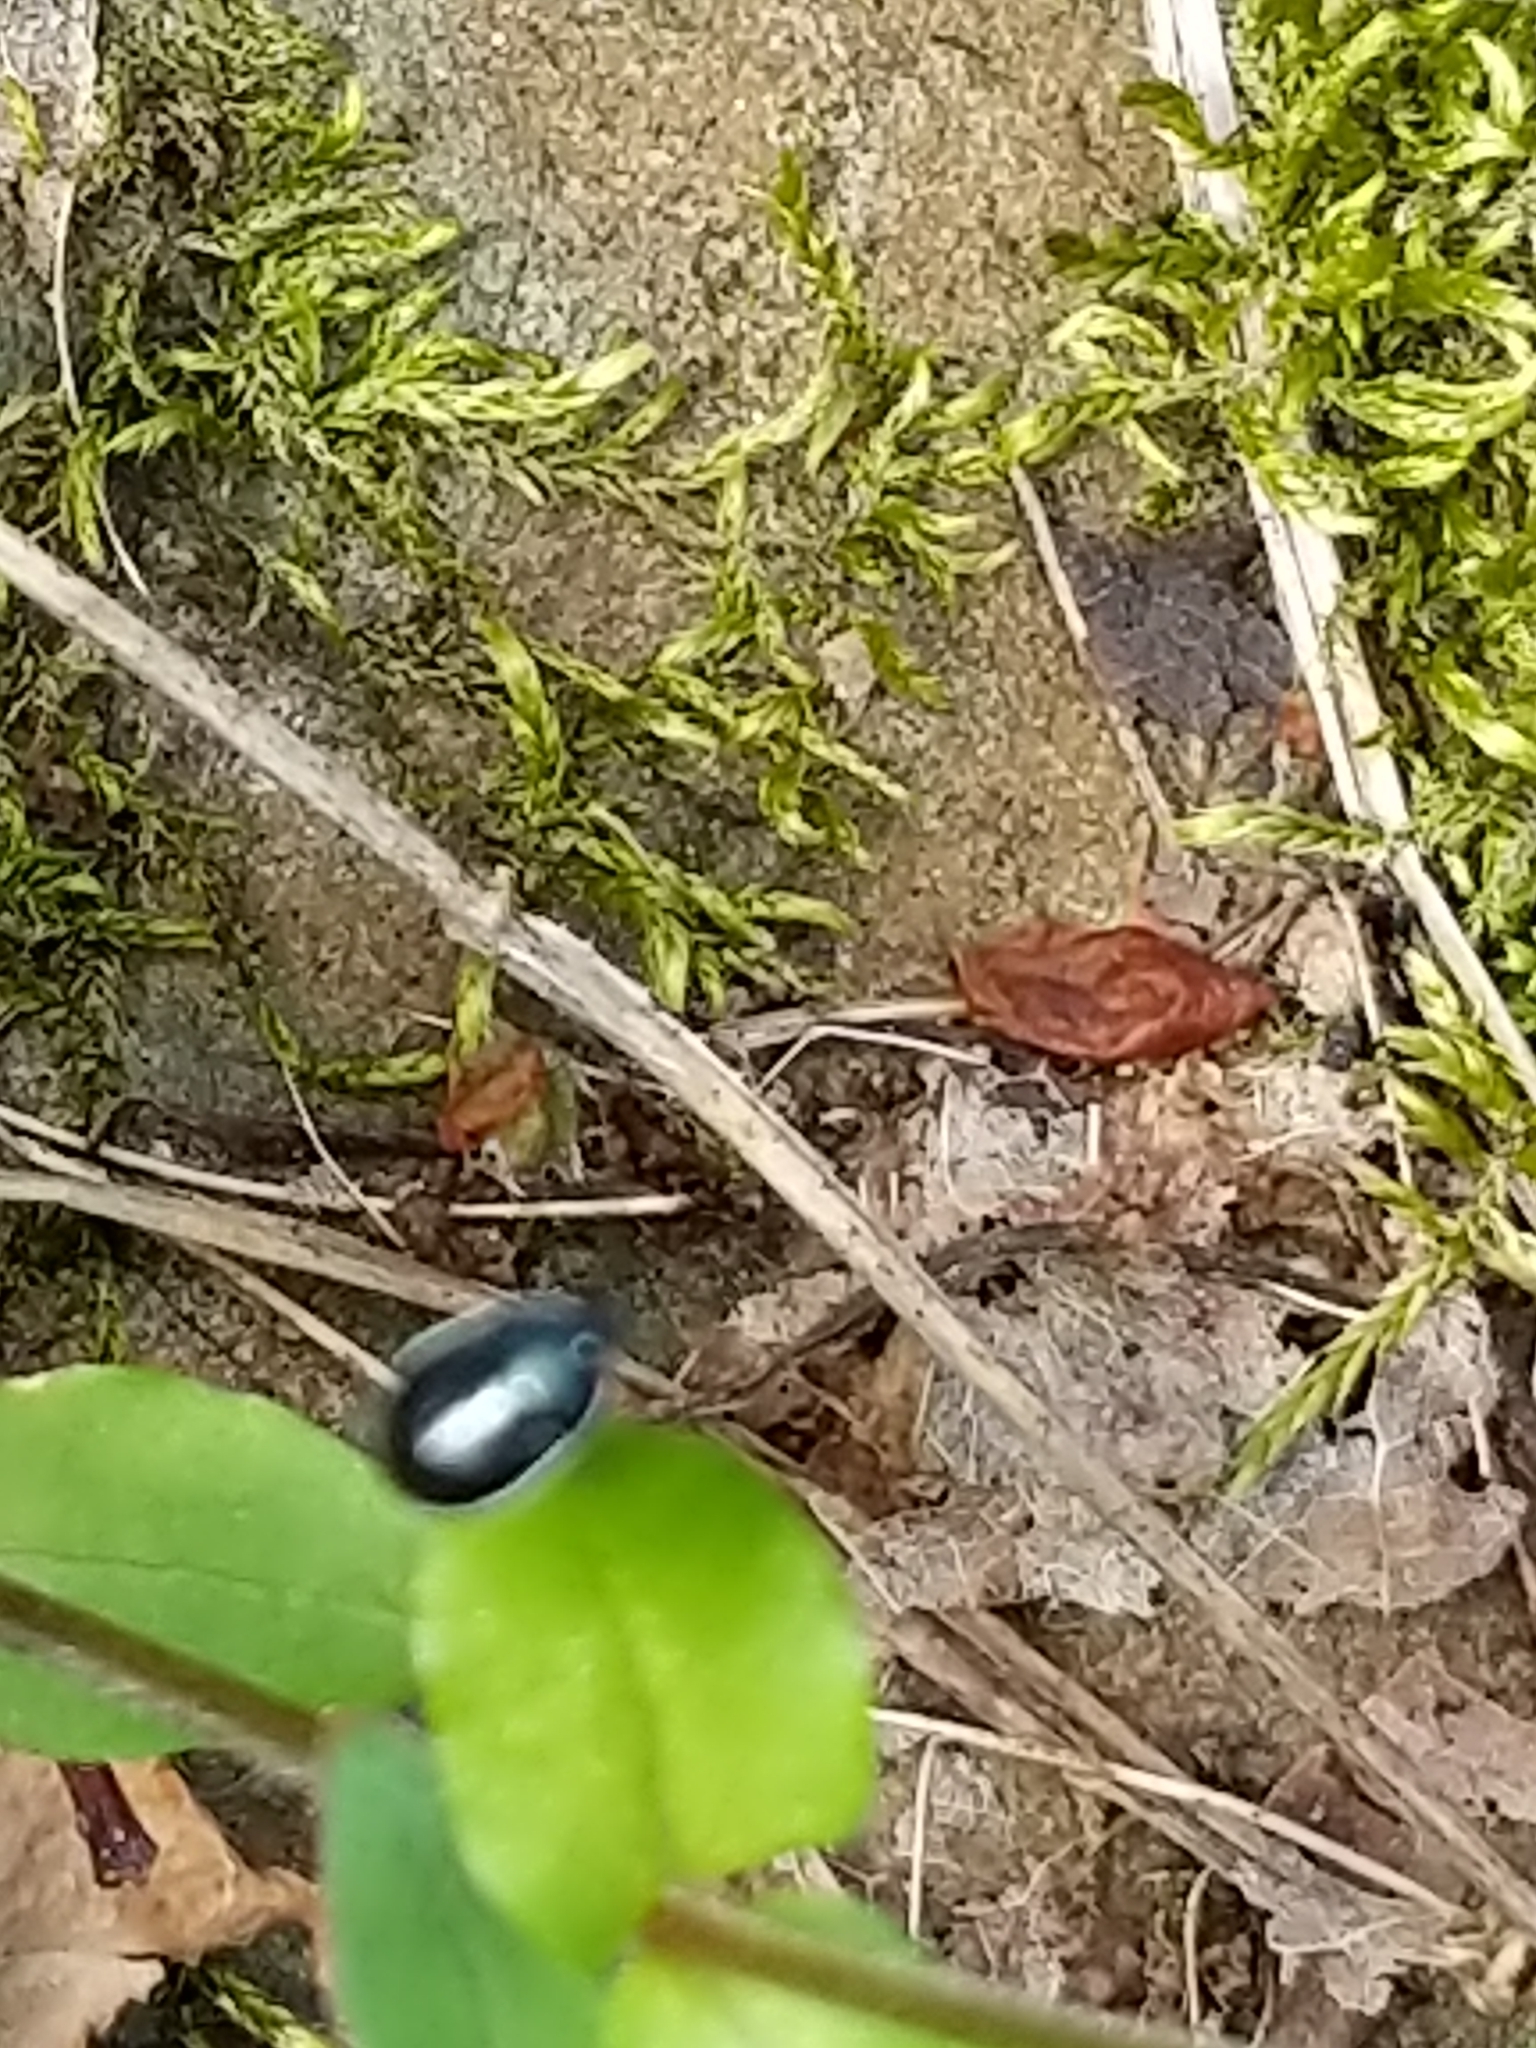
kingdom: Animalia
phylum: Arthropoda
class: Insecta
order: Hemiptera
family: Cydnidae
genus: Sehirus
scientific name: Sehirus cinctus
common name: White-margined burrower bug
